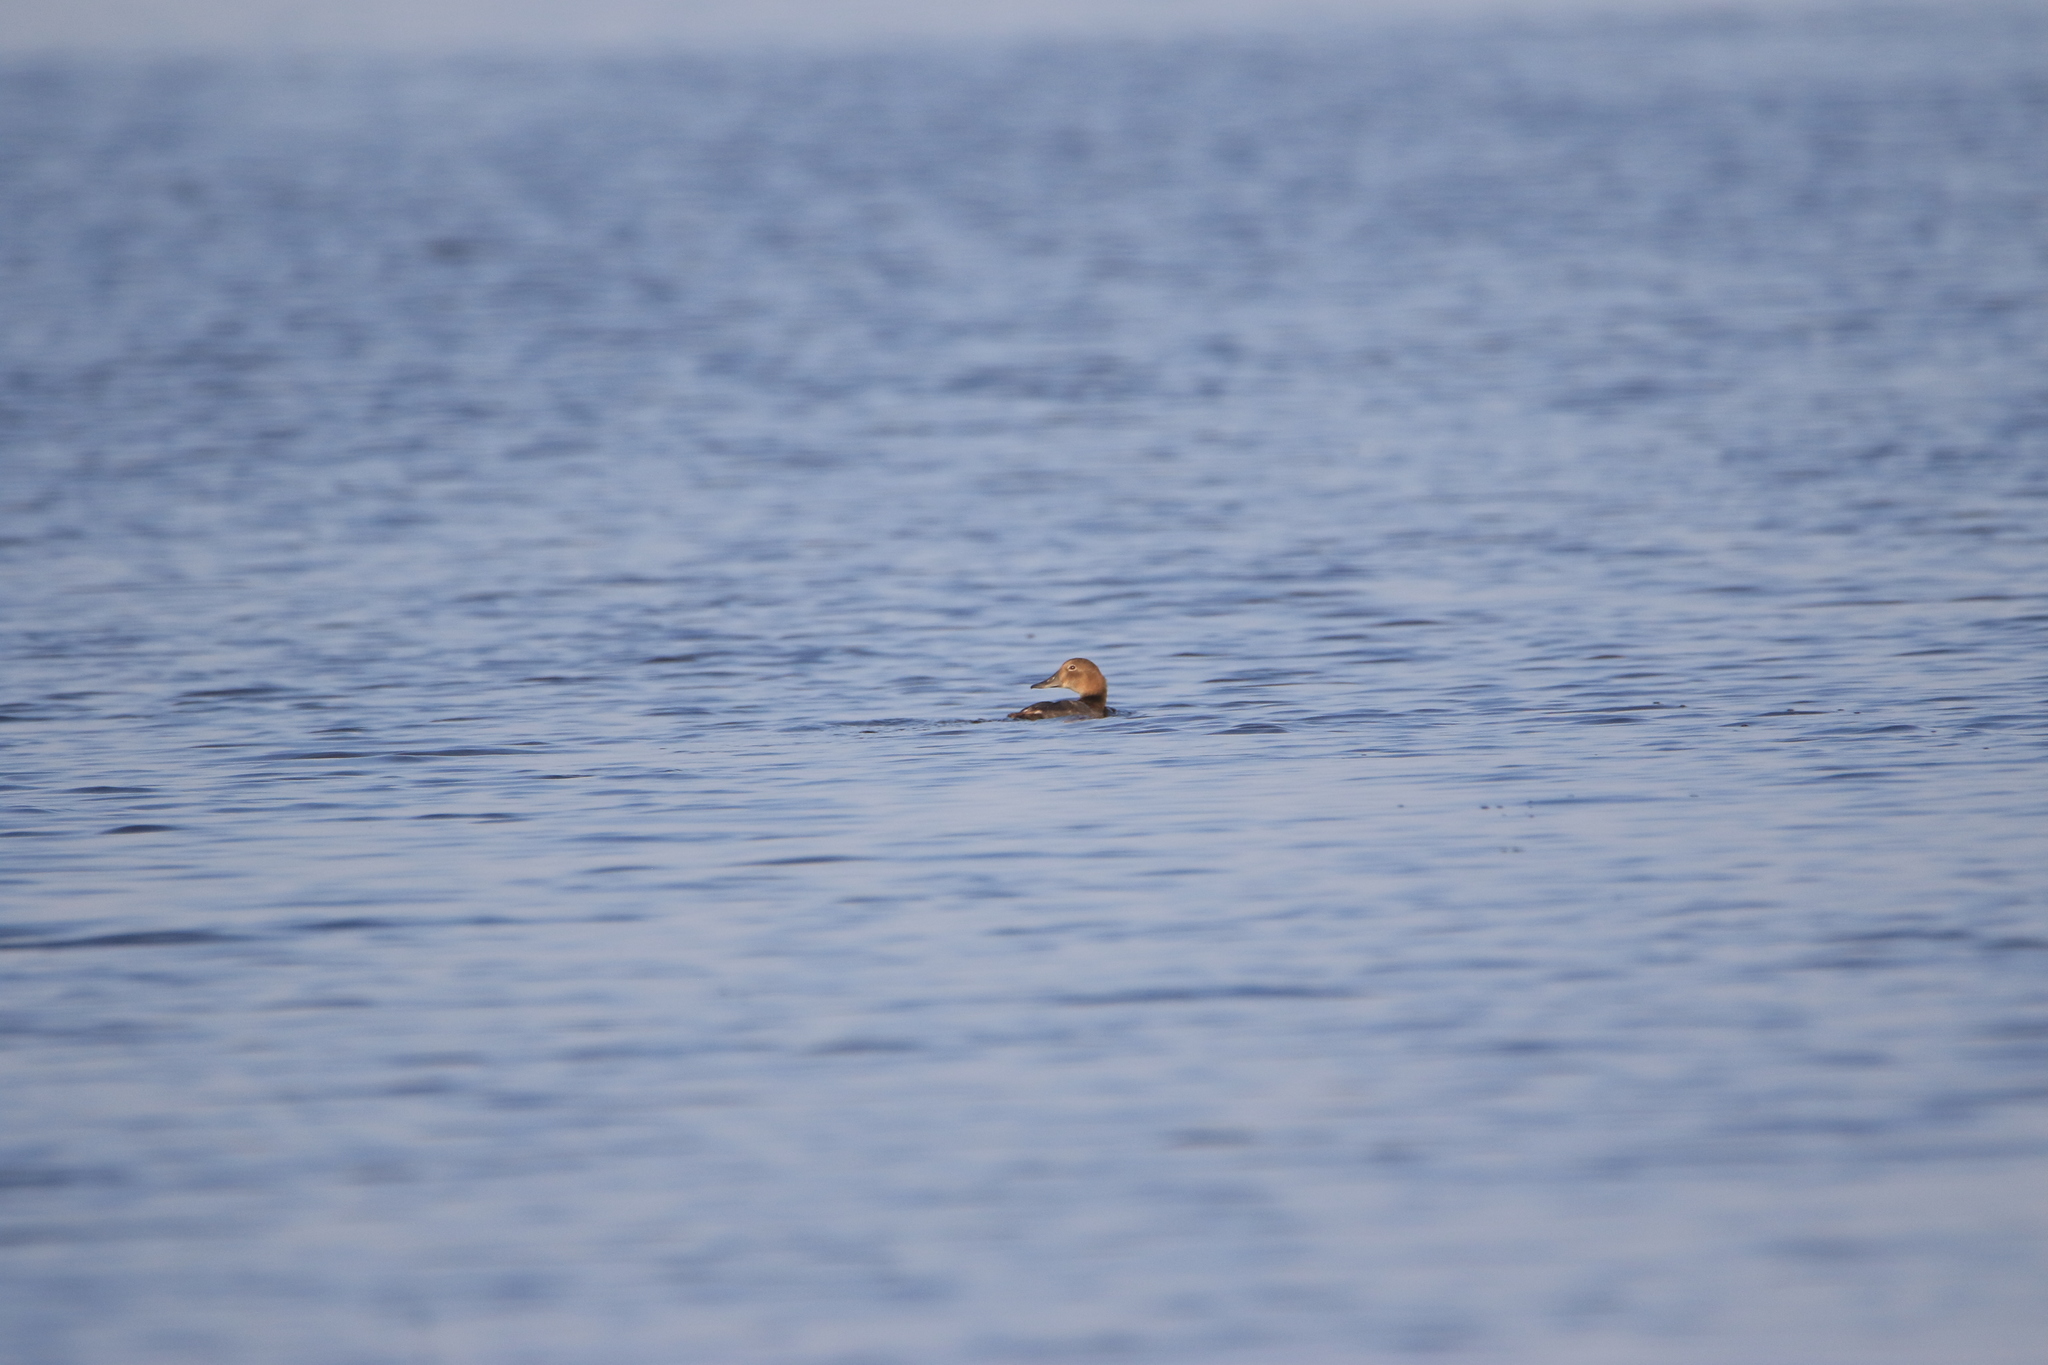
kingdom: Animalia
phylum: Chordata
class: Aves
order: Anseriformes
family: Anatidae
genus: Aythya
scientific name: Aythya ferina
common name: Common pochard
